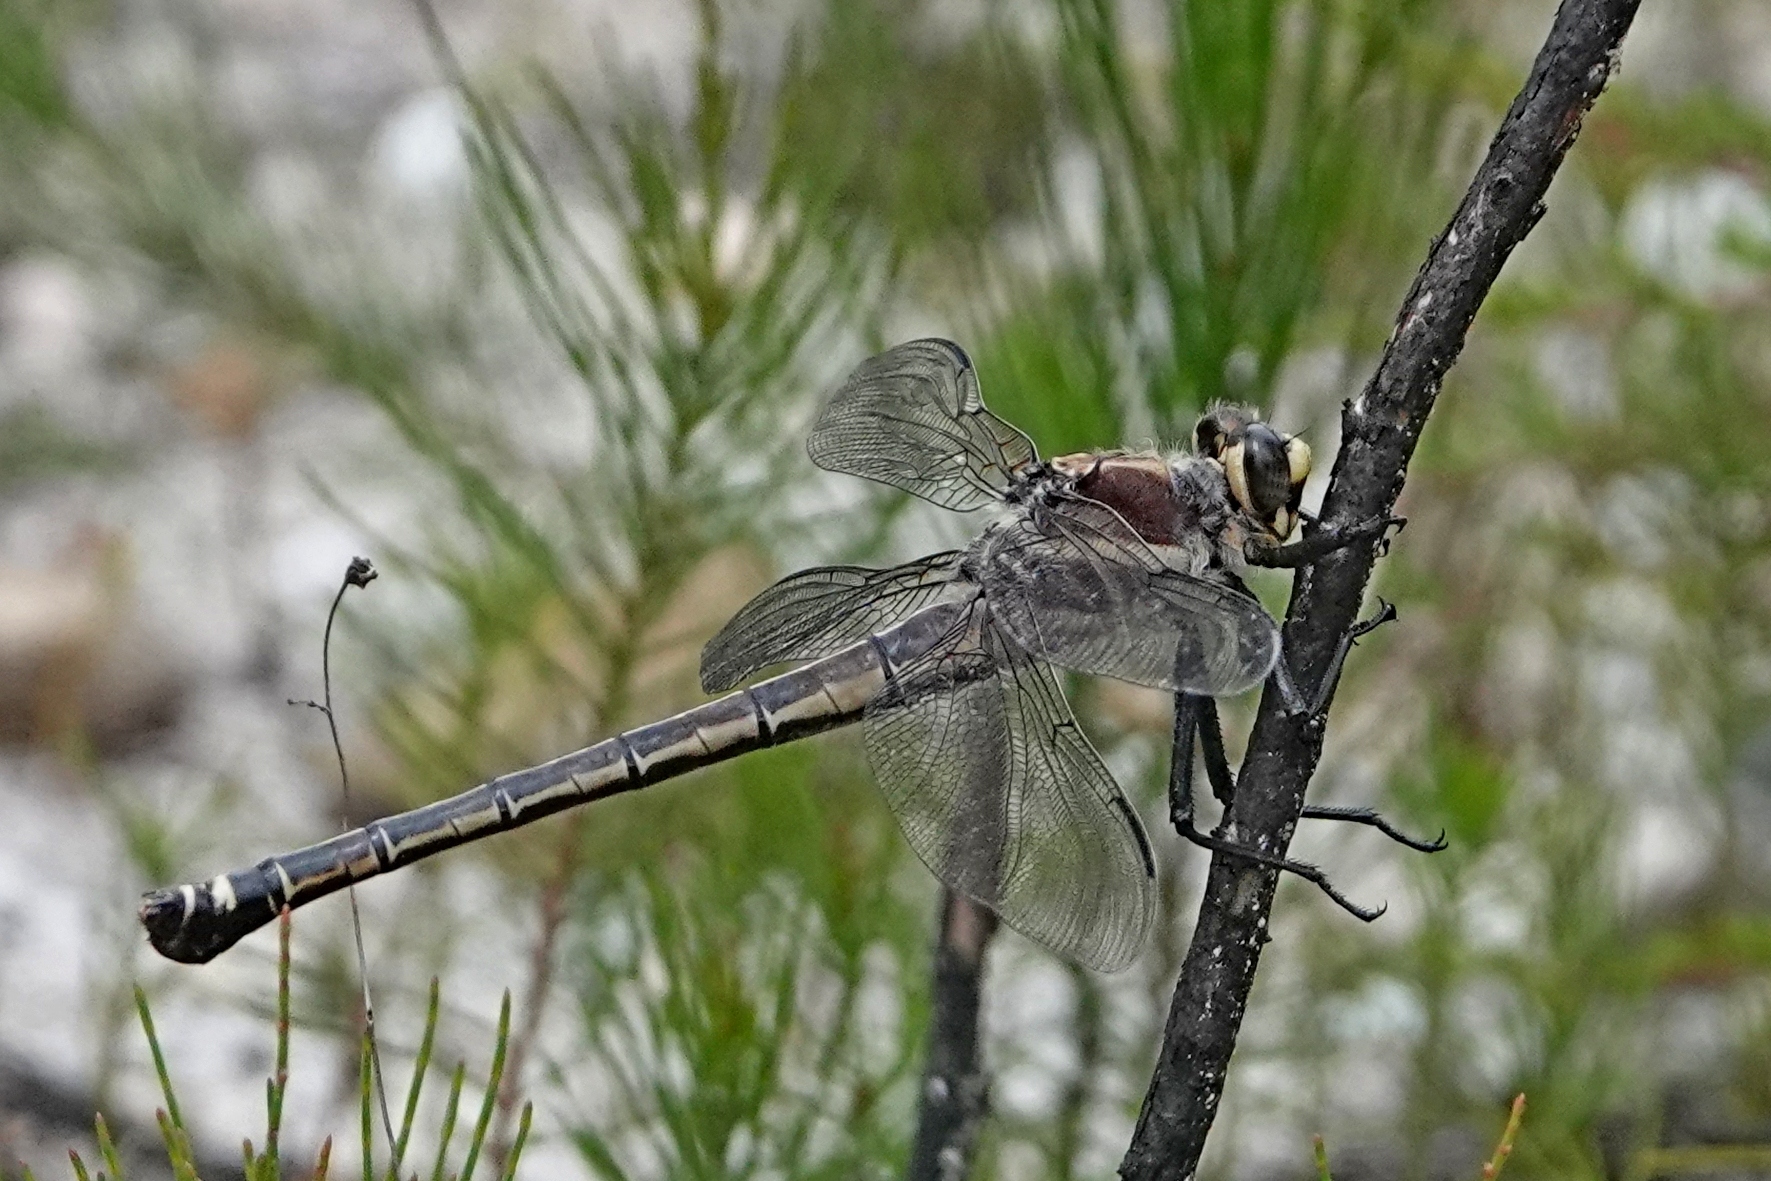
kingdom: Animalia
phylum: Arthropoda
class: Insecta
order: Odonata
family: Petaluridae
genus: Petalura
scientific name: Petalura gigantea
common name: South-eastern petaltail
